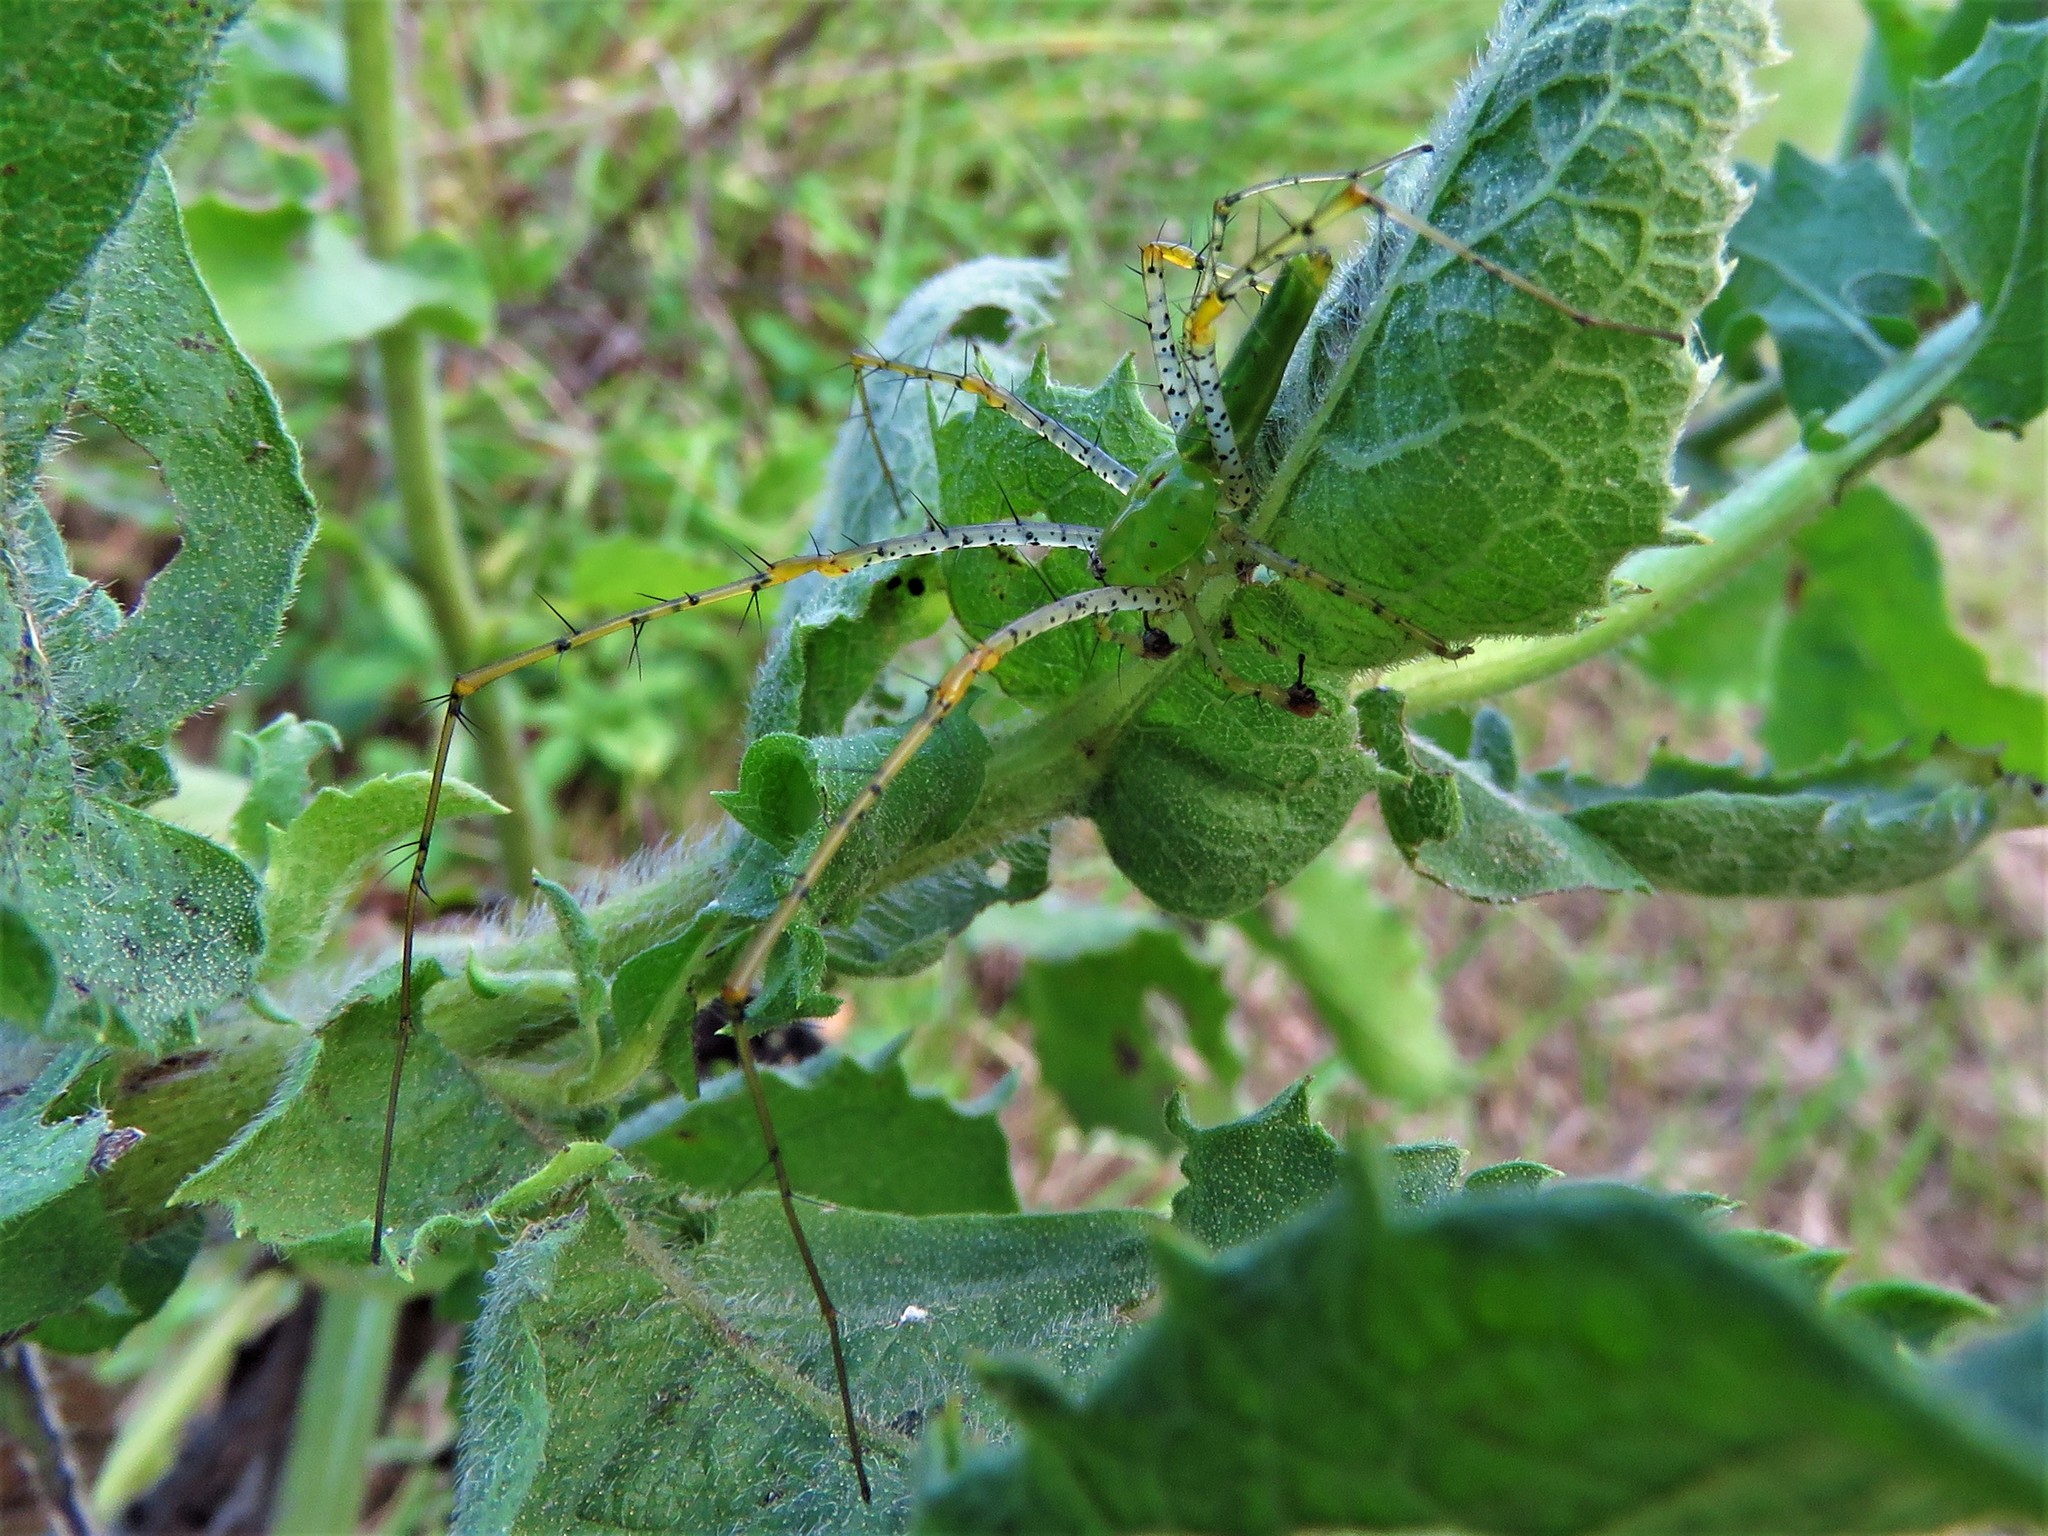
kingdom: Animalia
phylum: Arthropoda
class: Arachnida
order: Araneae
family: Oxyopidae
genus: Peucetia
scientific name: Peucetia viridans
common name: Lynx spiders
